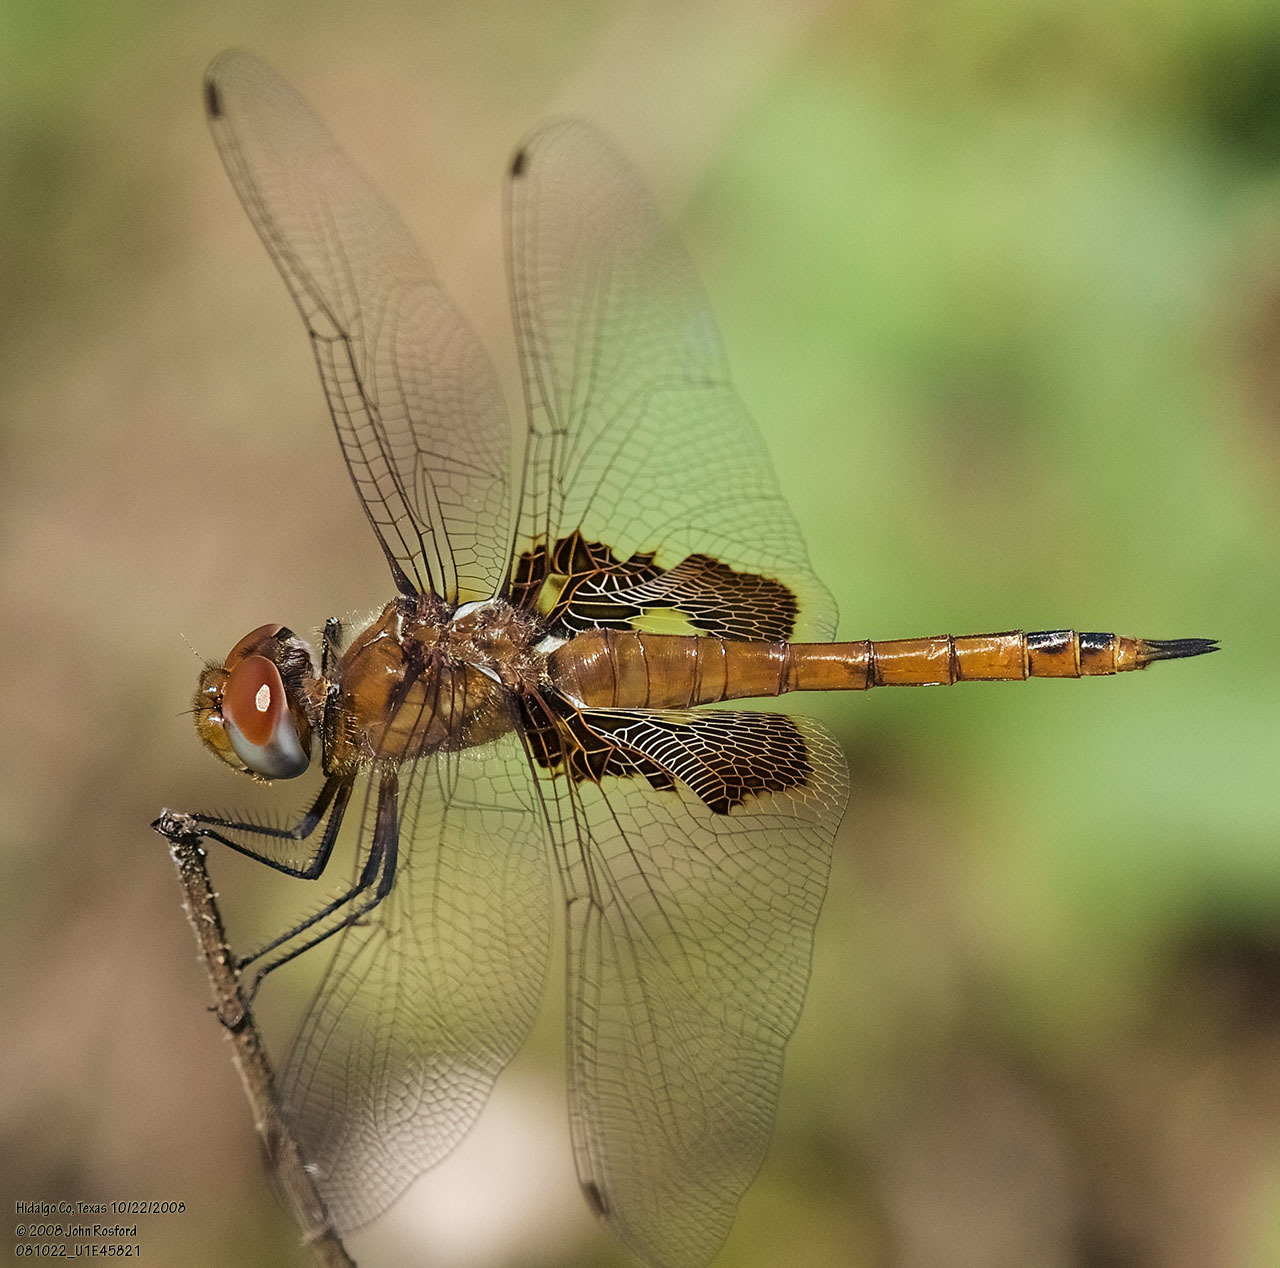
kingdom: Animalia
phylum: Arthropoda
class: Insecta
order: Odonata
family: Libellulidae
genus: Tramea
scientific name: Tramea onusta
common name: Red saddlebags
